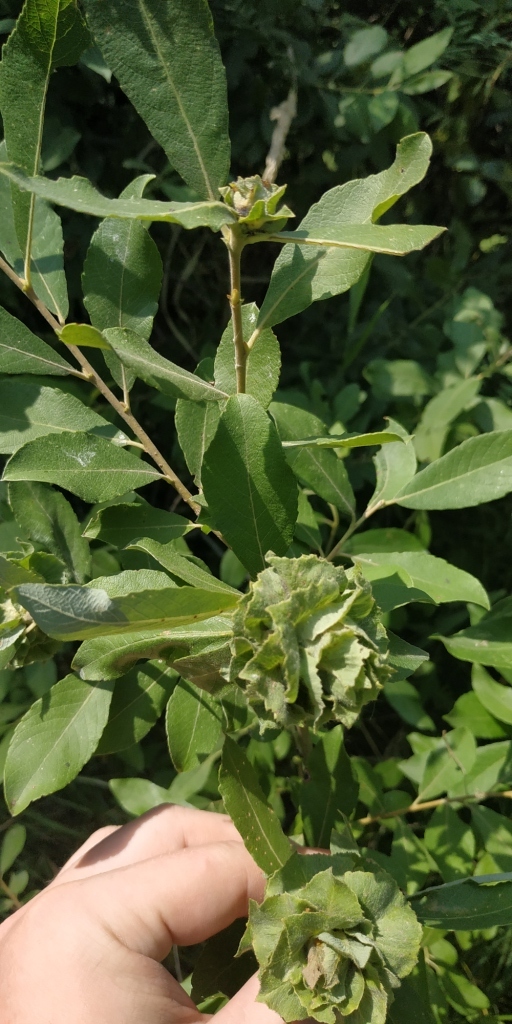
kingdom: Animalia
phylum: Arthropoda
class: Insecta
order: Diptera
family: Cecidomyiidae
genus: Rabdophaga
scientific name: Rabdophaga rosaria
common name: Willow rose gall midge
